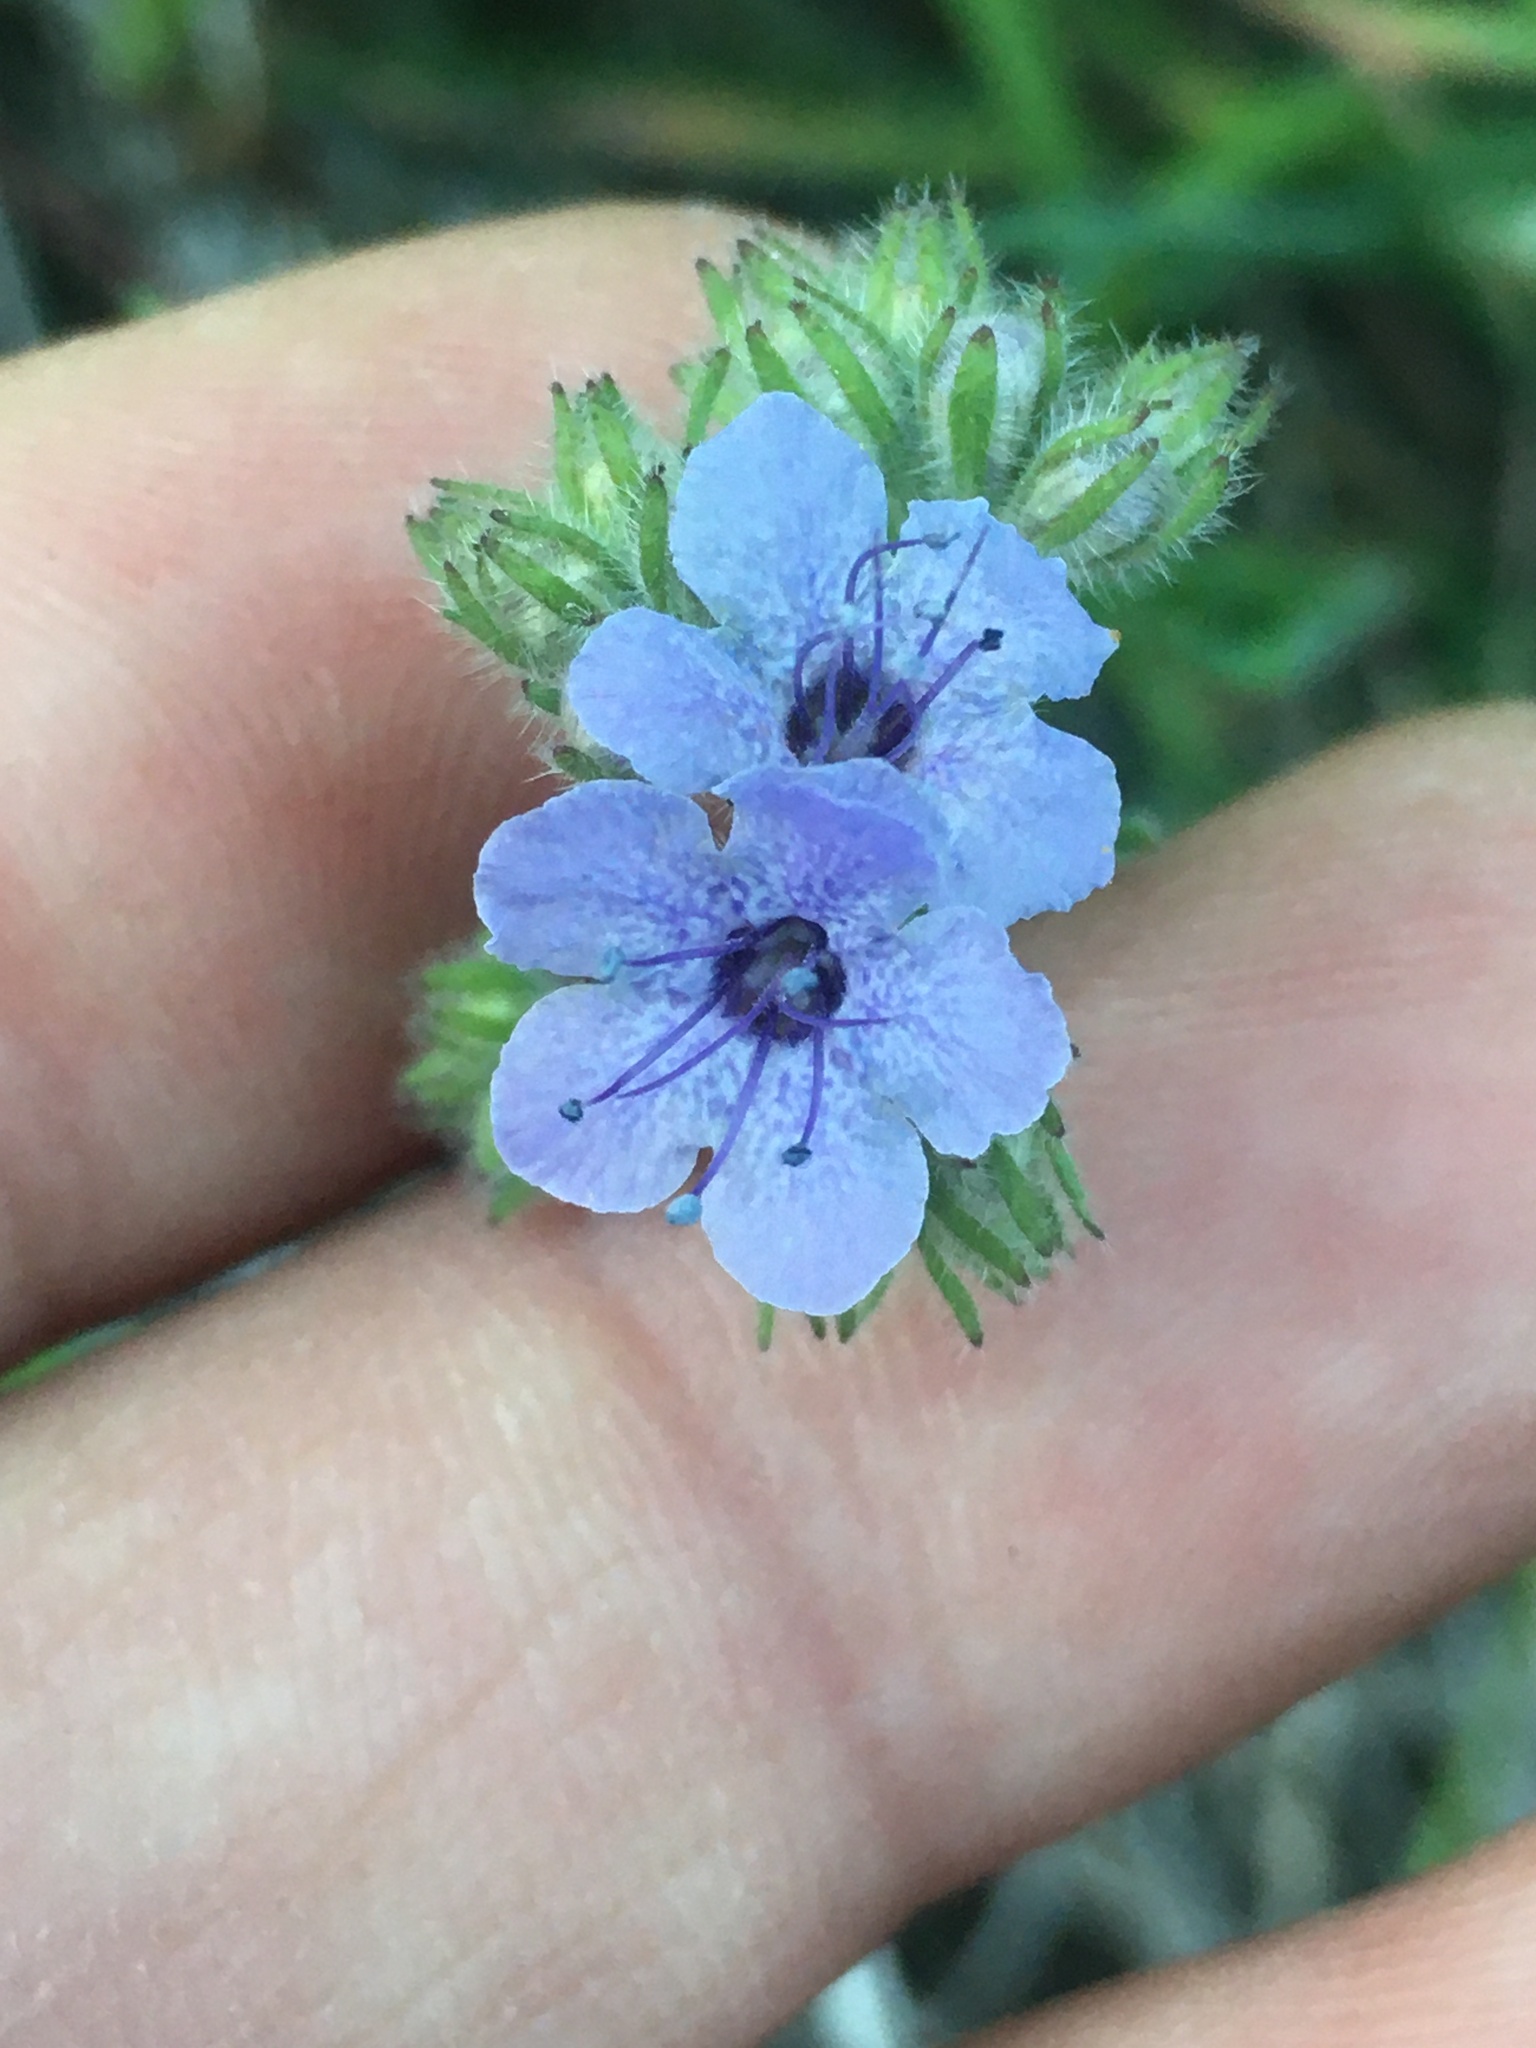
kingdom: Plantae
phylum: Tracheophyta
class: Magnoliopsida
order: Boraginales
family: Hydrophyllaceae
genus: Phacelia
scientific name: Phacelia distans
